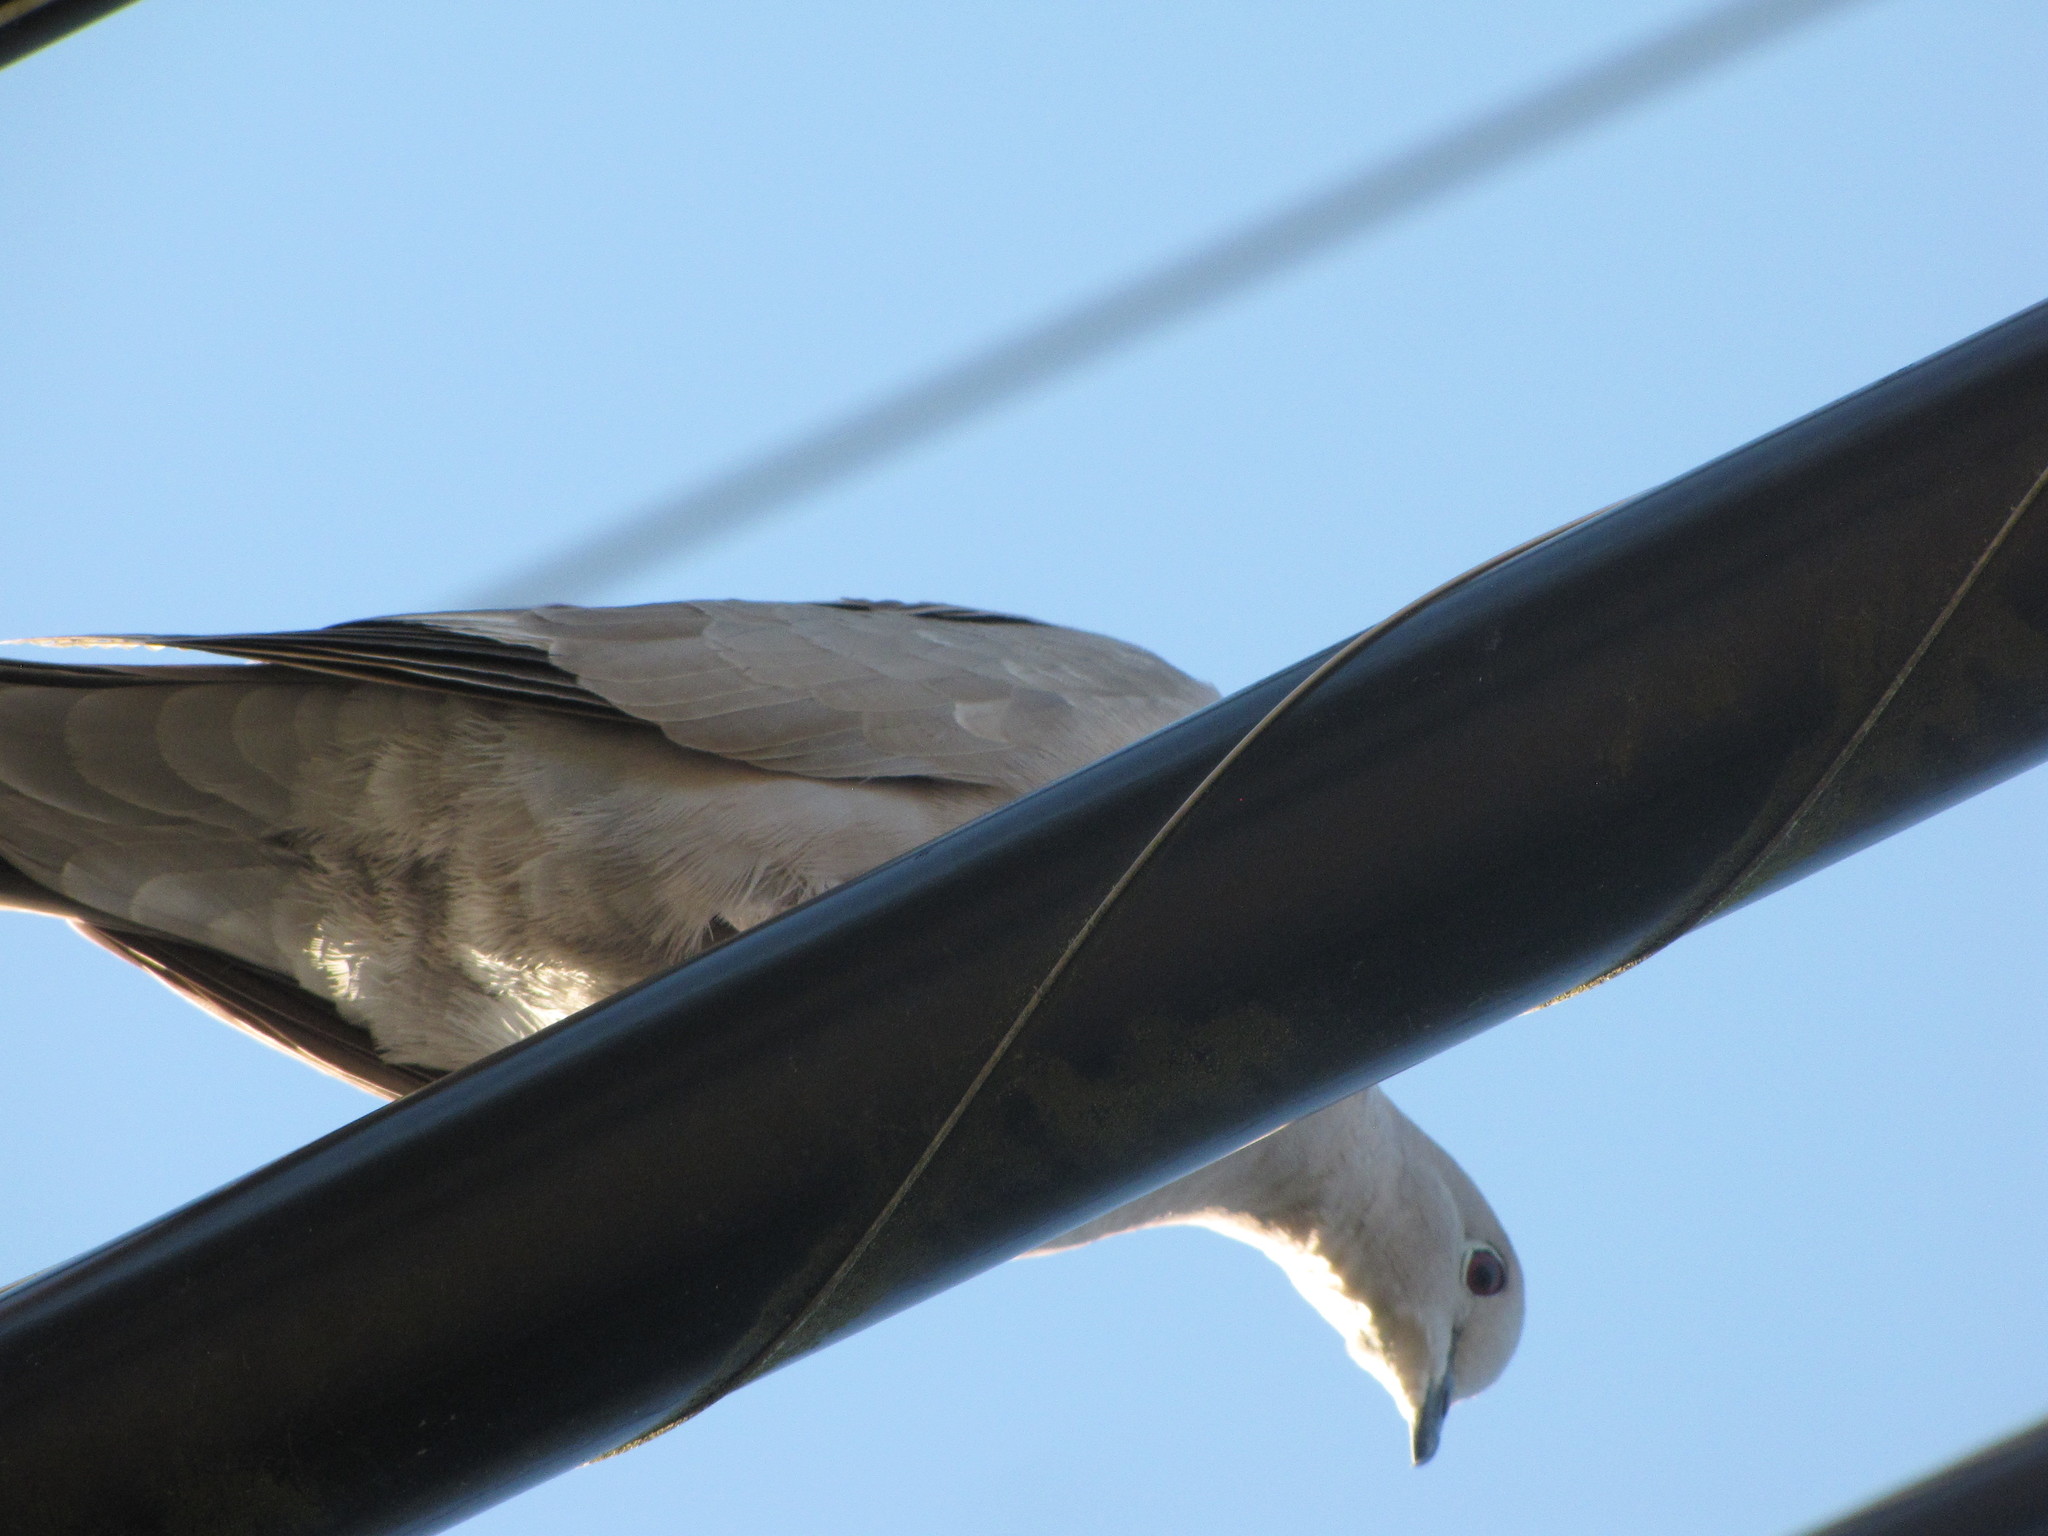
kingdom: Animalia
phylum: Chordata
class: Aves
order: Columbiformes
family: Columbidae
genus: Streptopelia
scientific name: Streptopelia decaocto
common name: Eurasian collared dove
